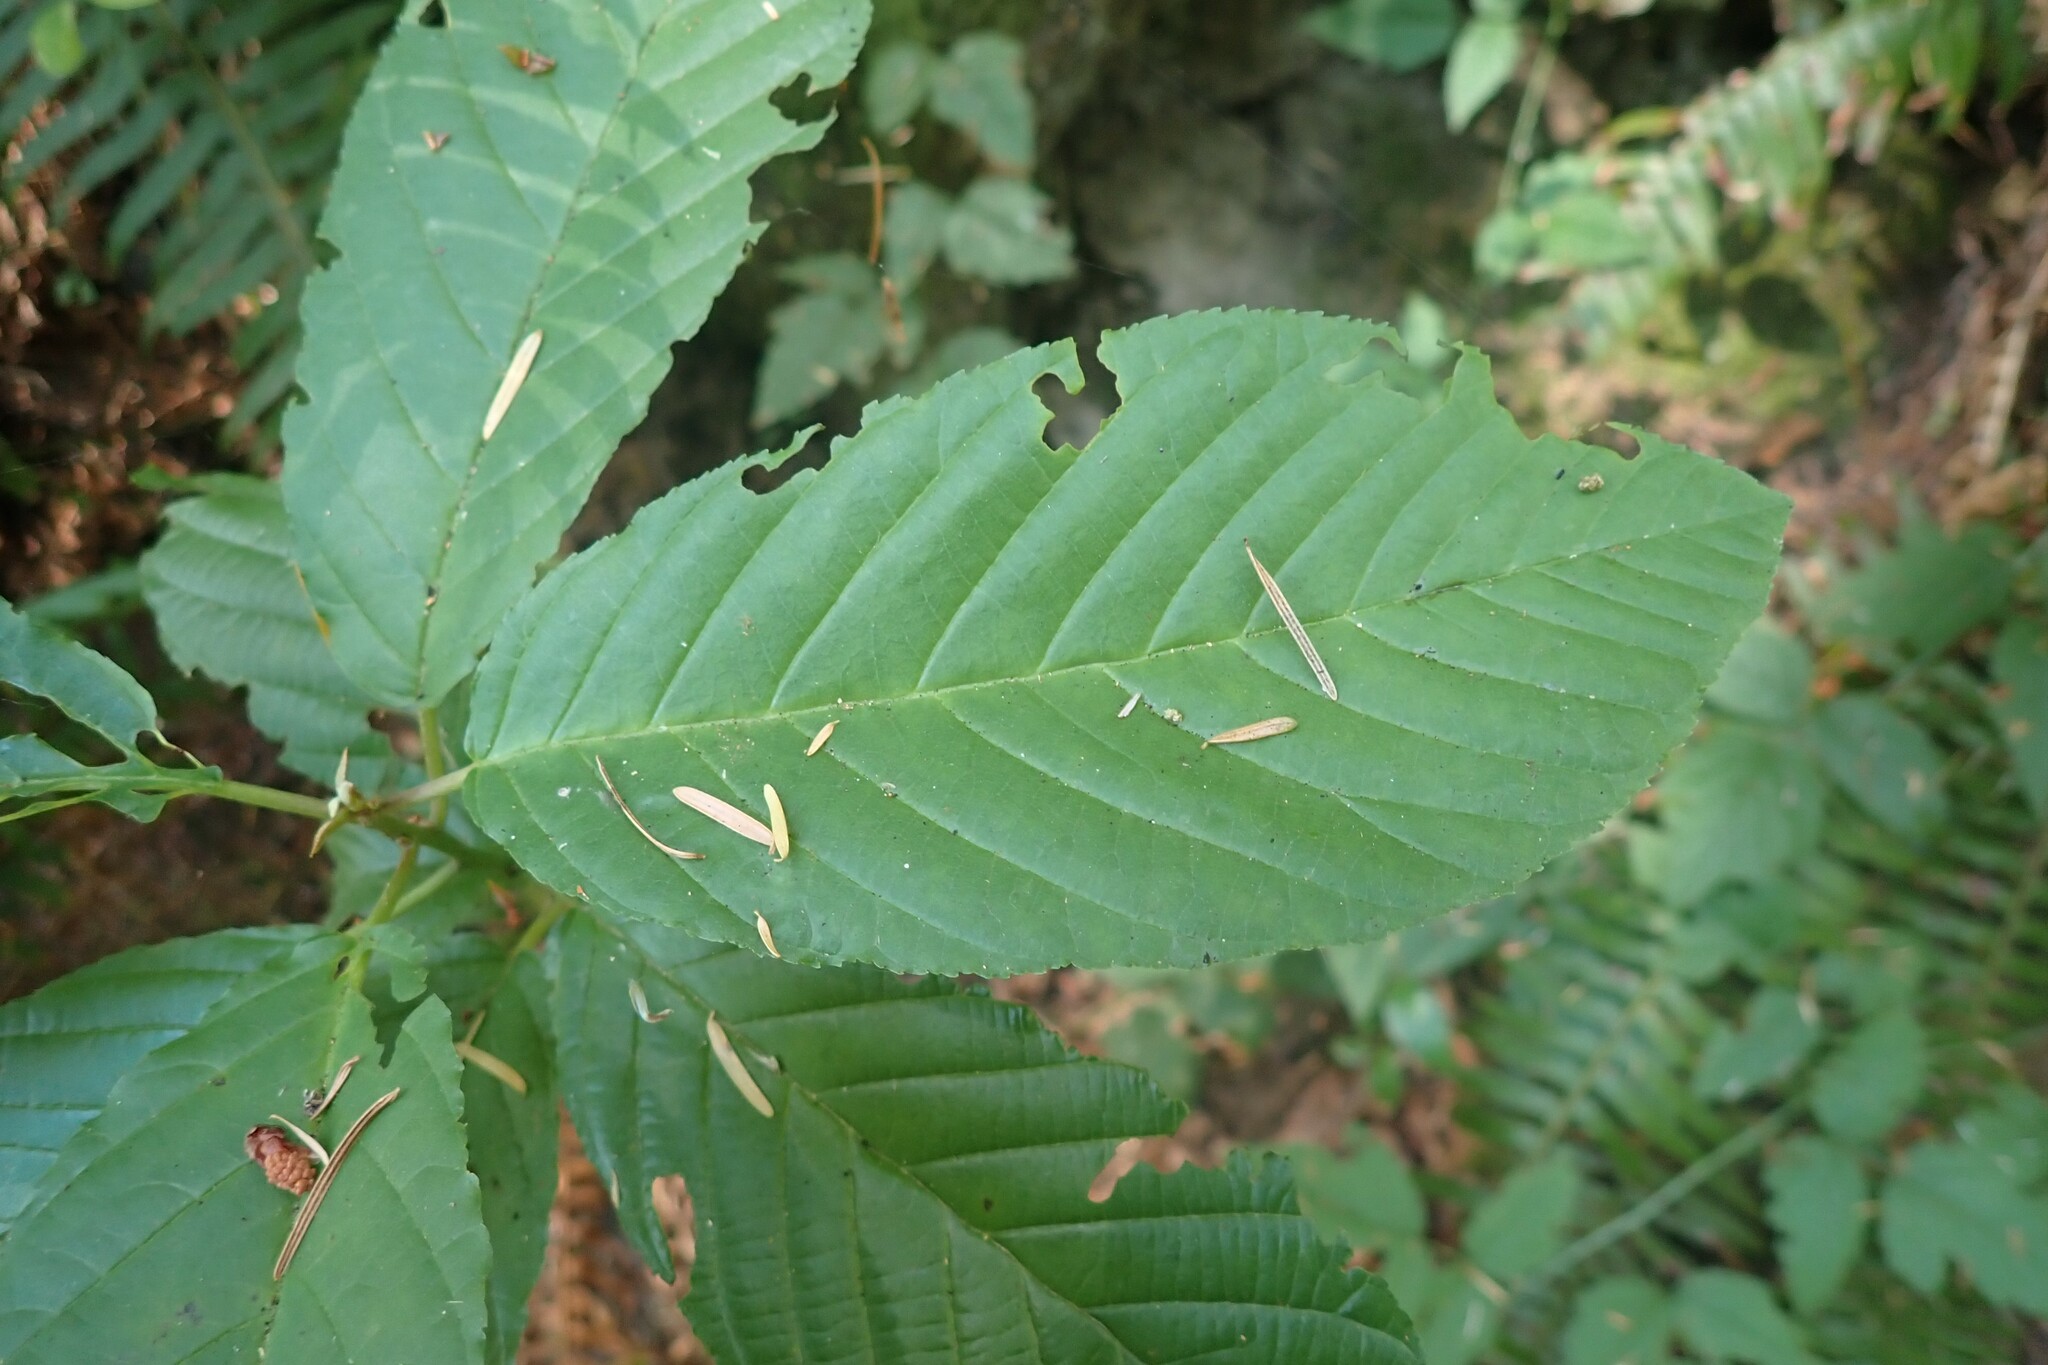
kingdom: Plantae
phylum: Tracheophyta
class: Magnoliopsida
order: Rosales
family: Rhamnaceae
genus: Frangula
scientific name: Frangula purshiana
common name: Cascara buckthorn
